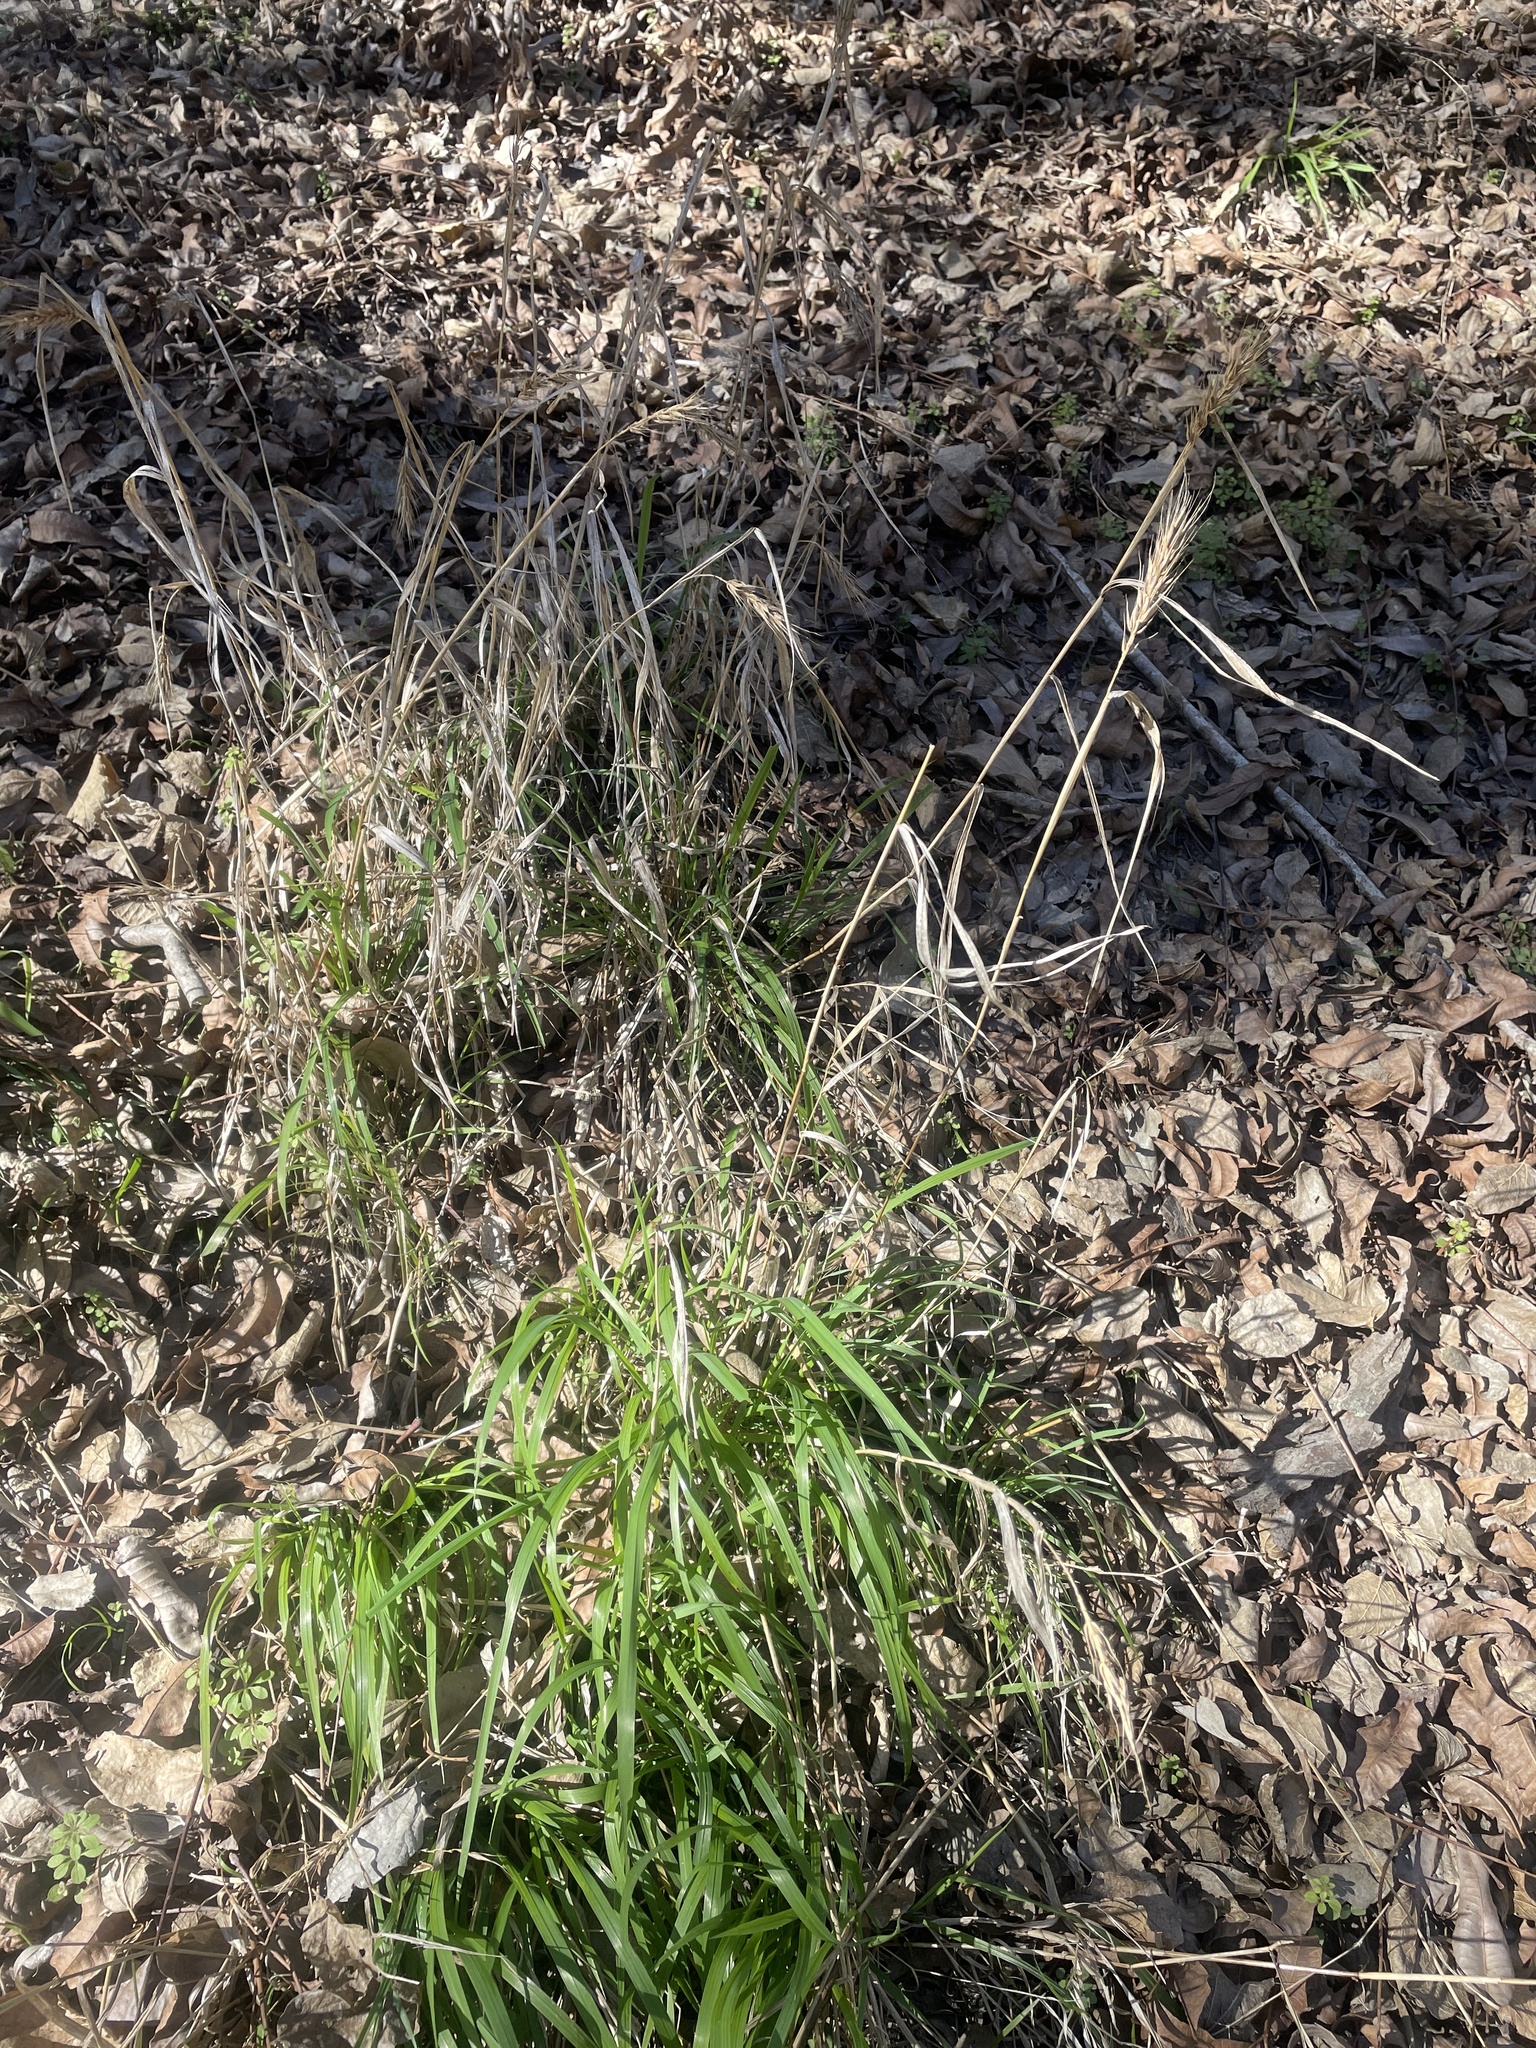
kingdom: Plantae
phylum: Tracheophyta
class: Liliopsida
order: Poales
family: Poaceae
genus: Elymus
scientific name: Elymus virginicus
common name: Common eastern wildrye
